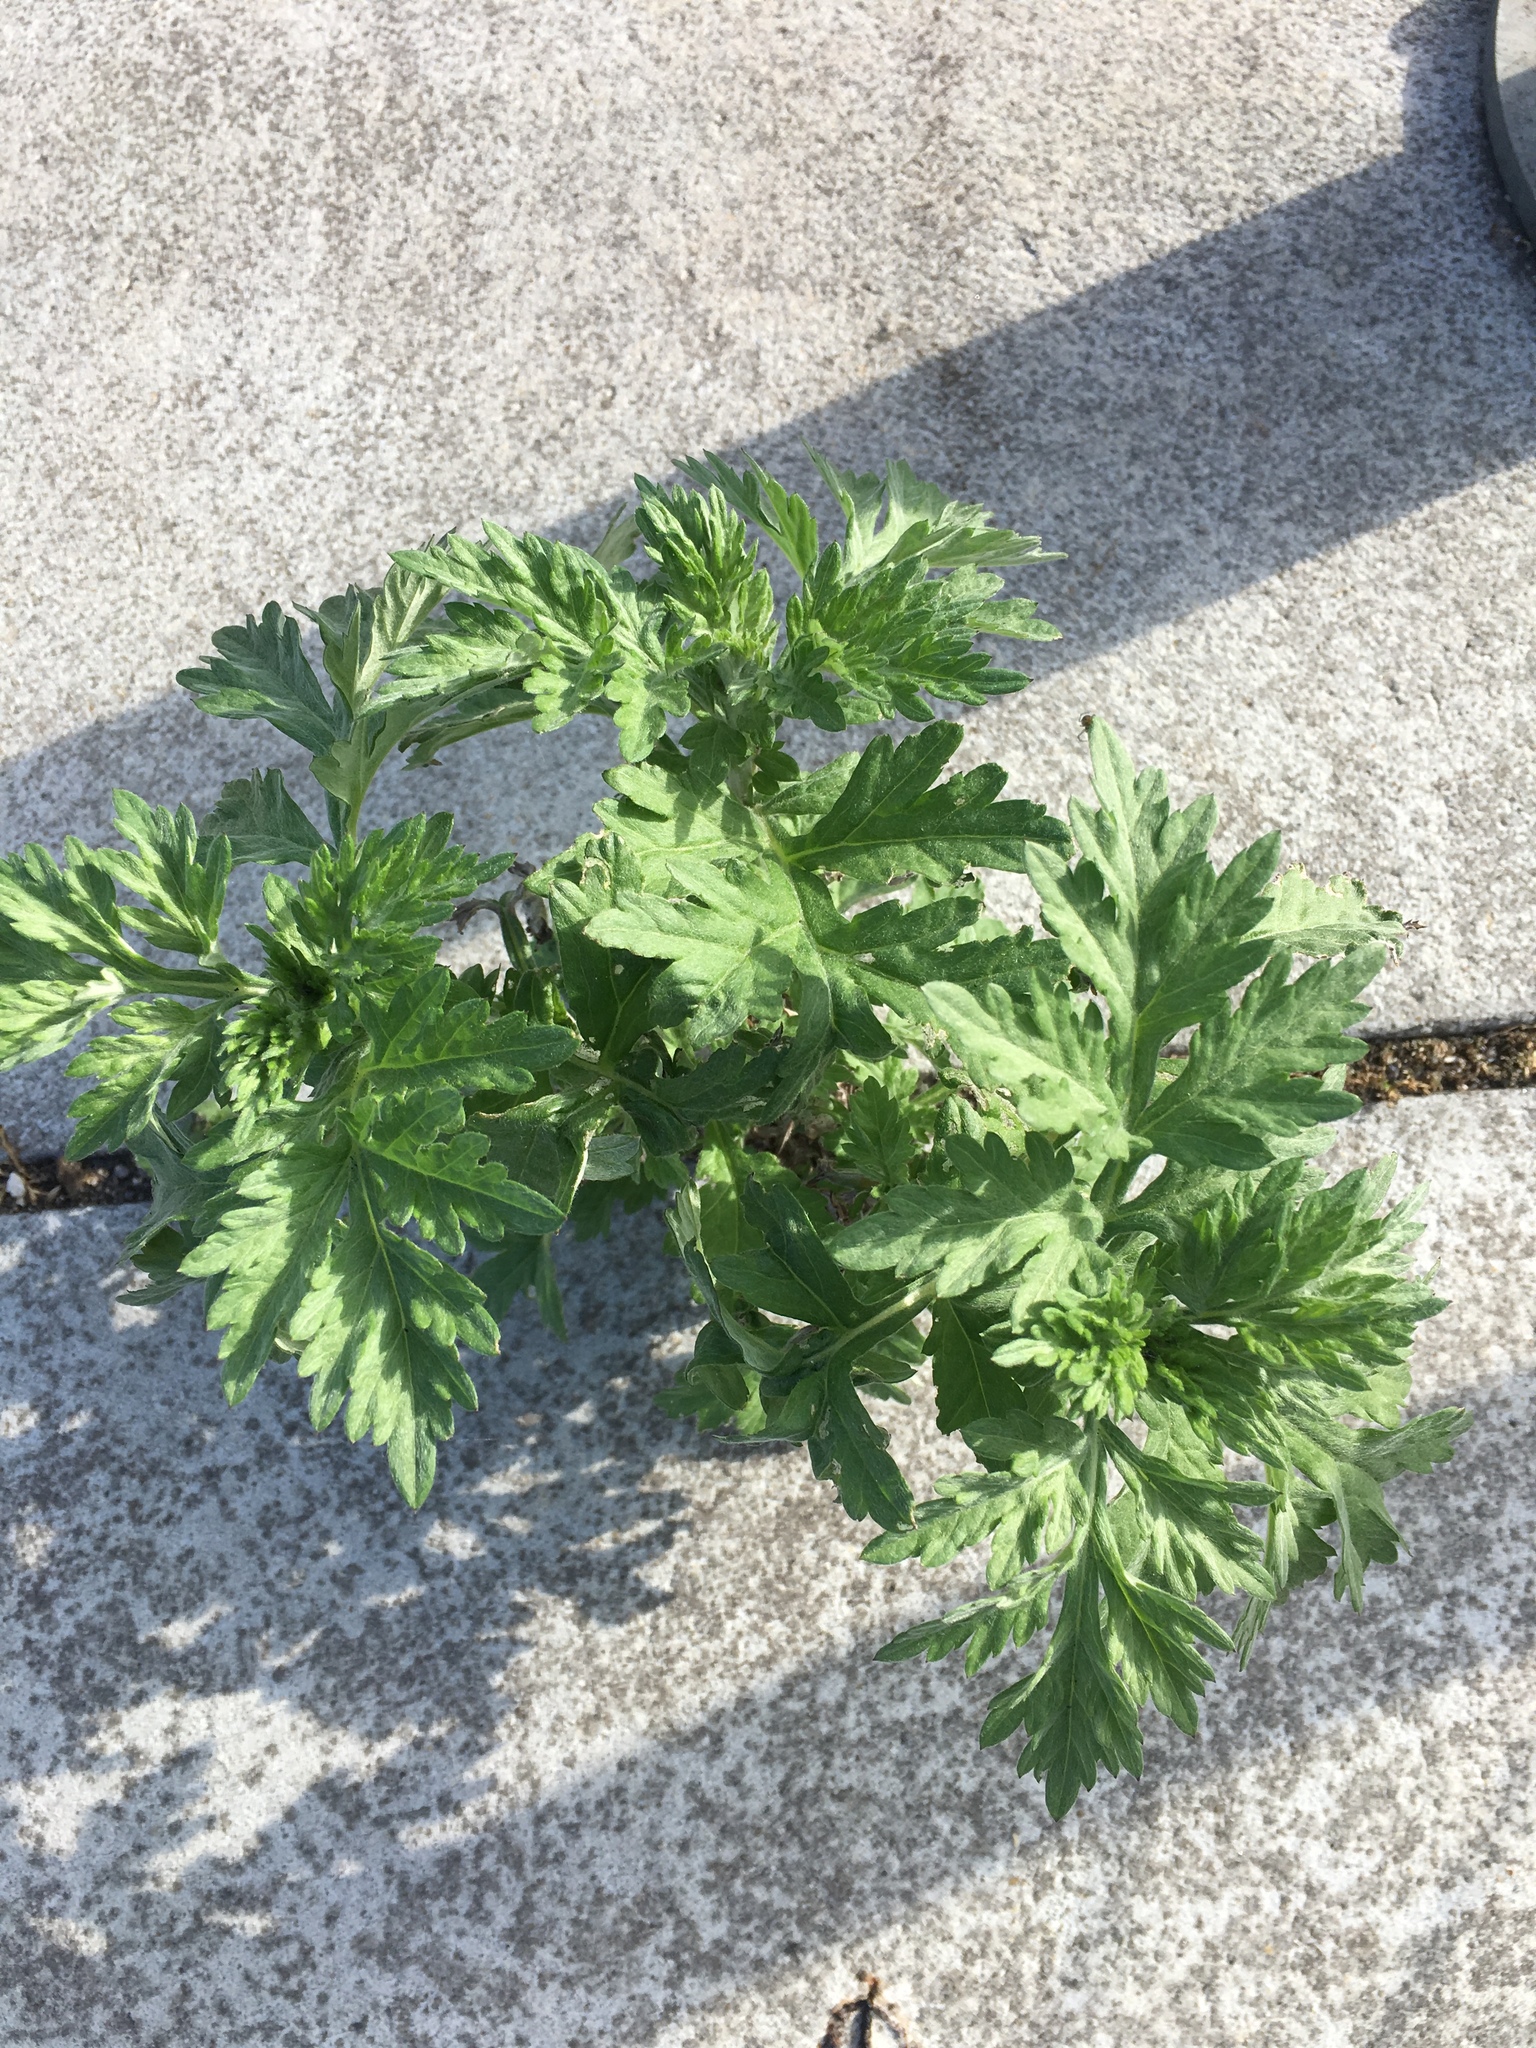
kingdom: Plantae
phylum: Tracheophyta
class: Magnoliopsida
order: Asterales
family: Asteraceae
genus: Artemisia
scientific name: Artemisia vulgaris
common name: Mugwort
